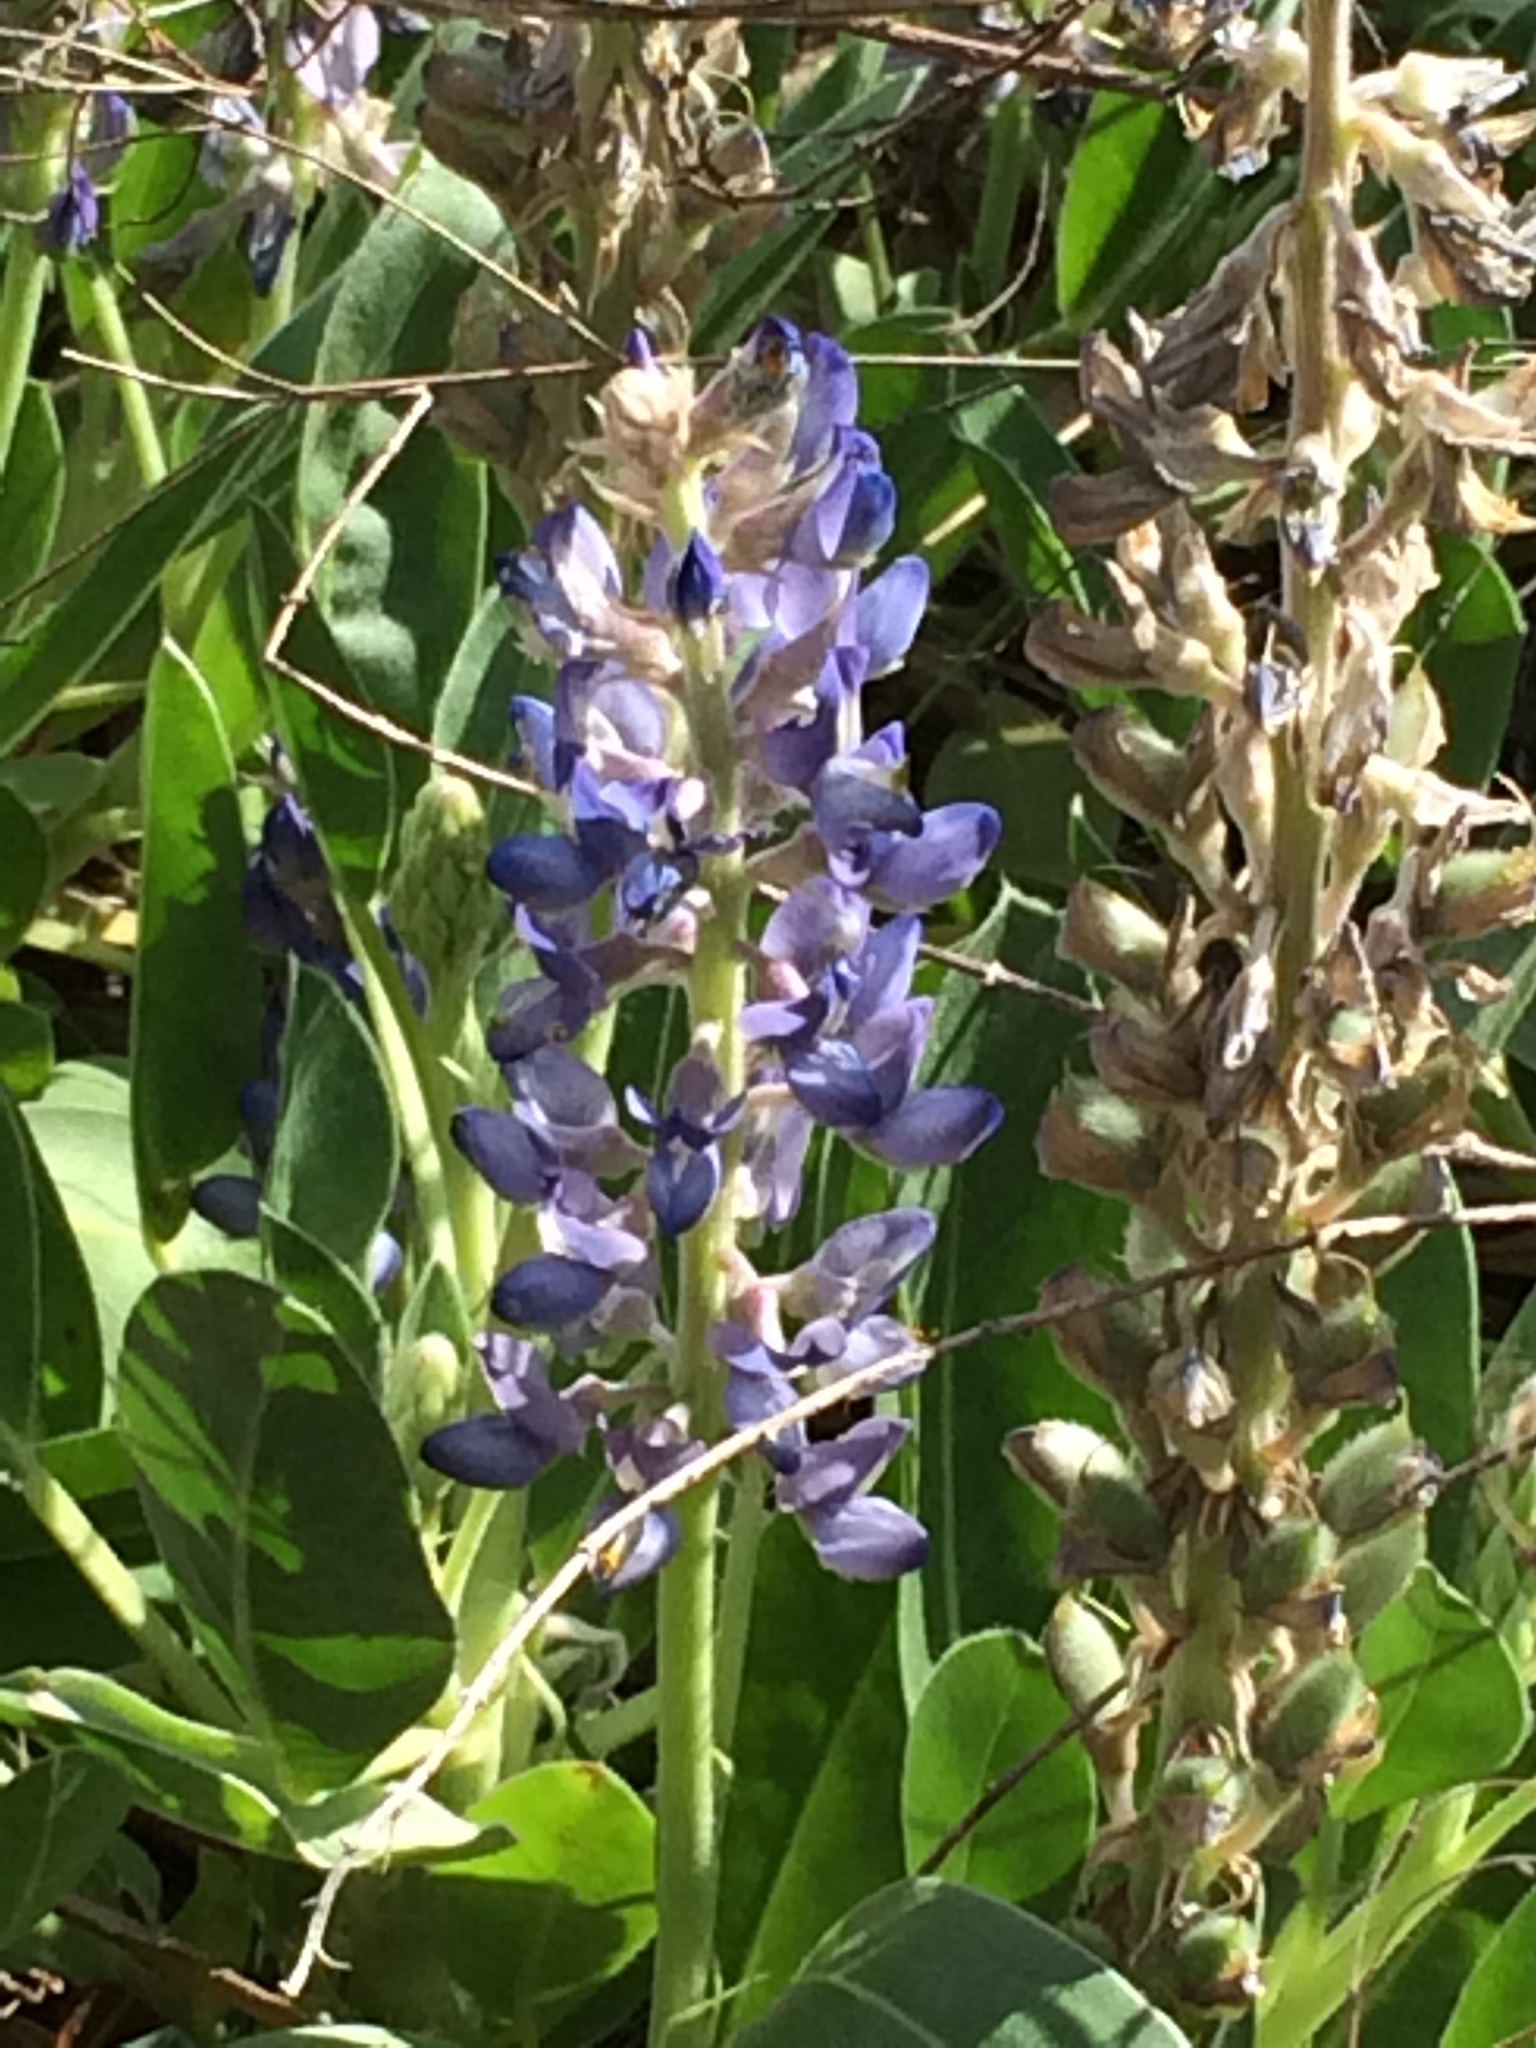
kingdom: Plantae
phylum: Tracheophyta
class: Magnoliopsida
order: Fabales
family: Fabaceae
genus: Lupinus
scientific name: Lupinus
